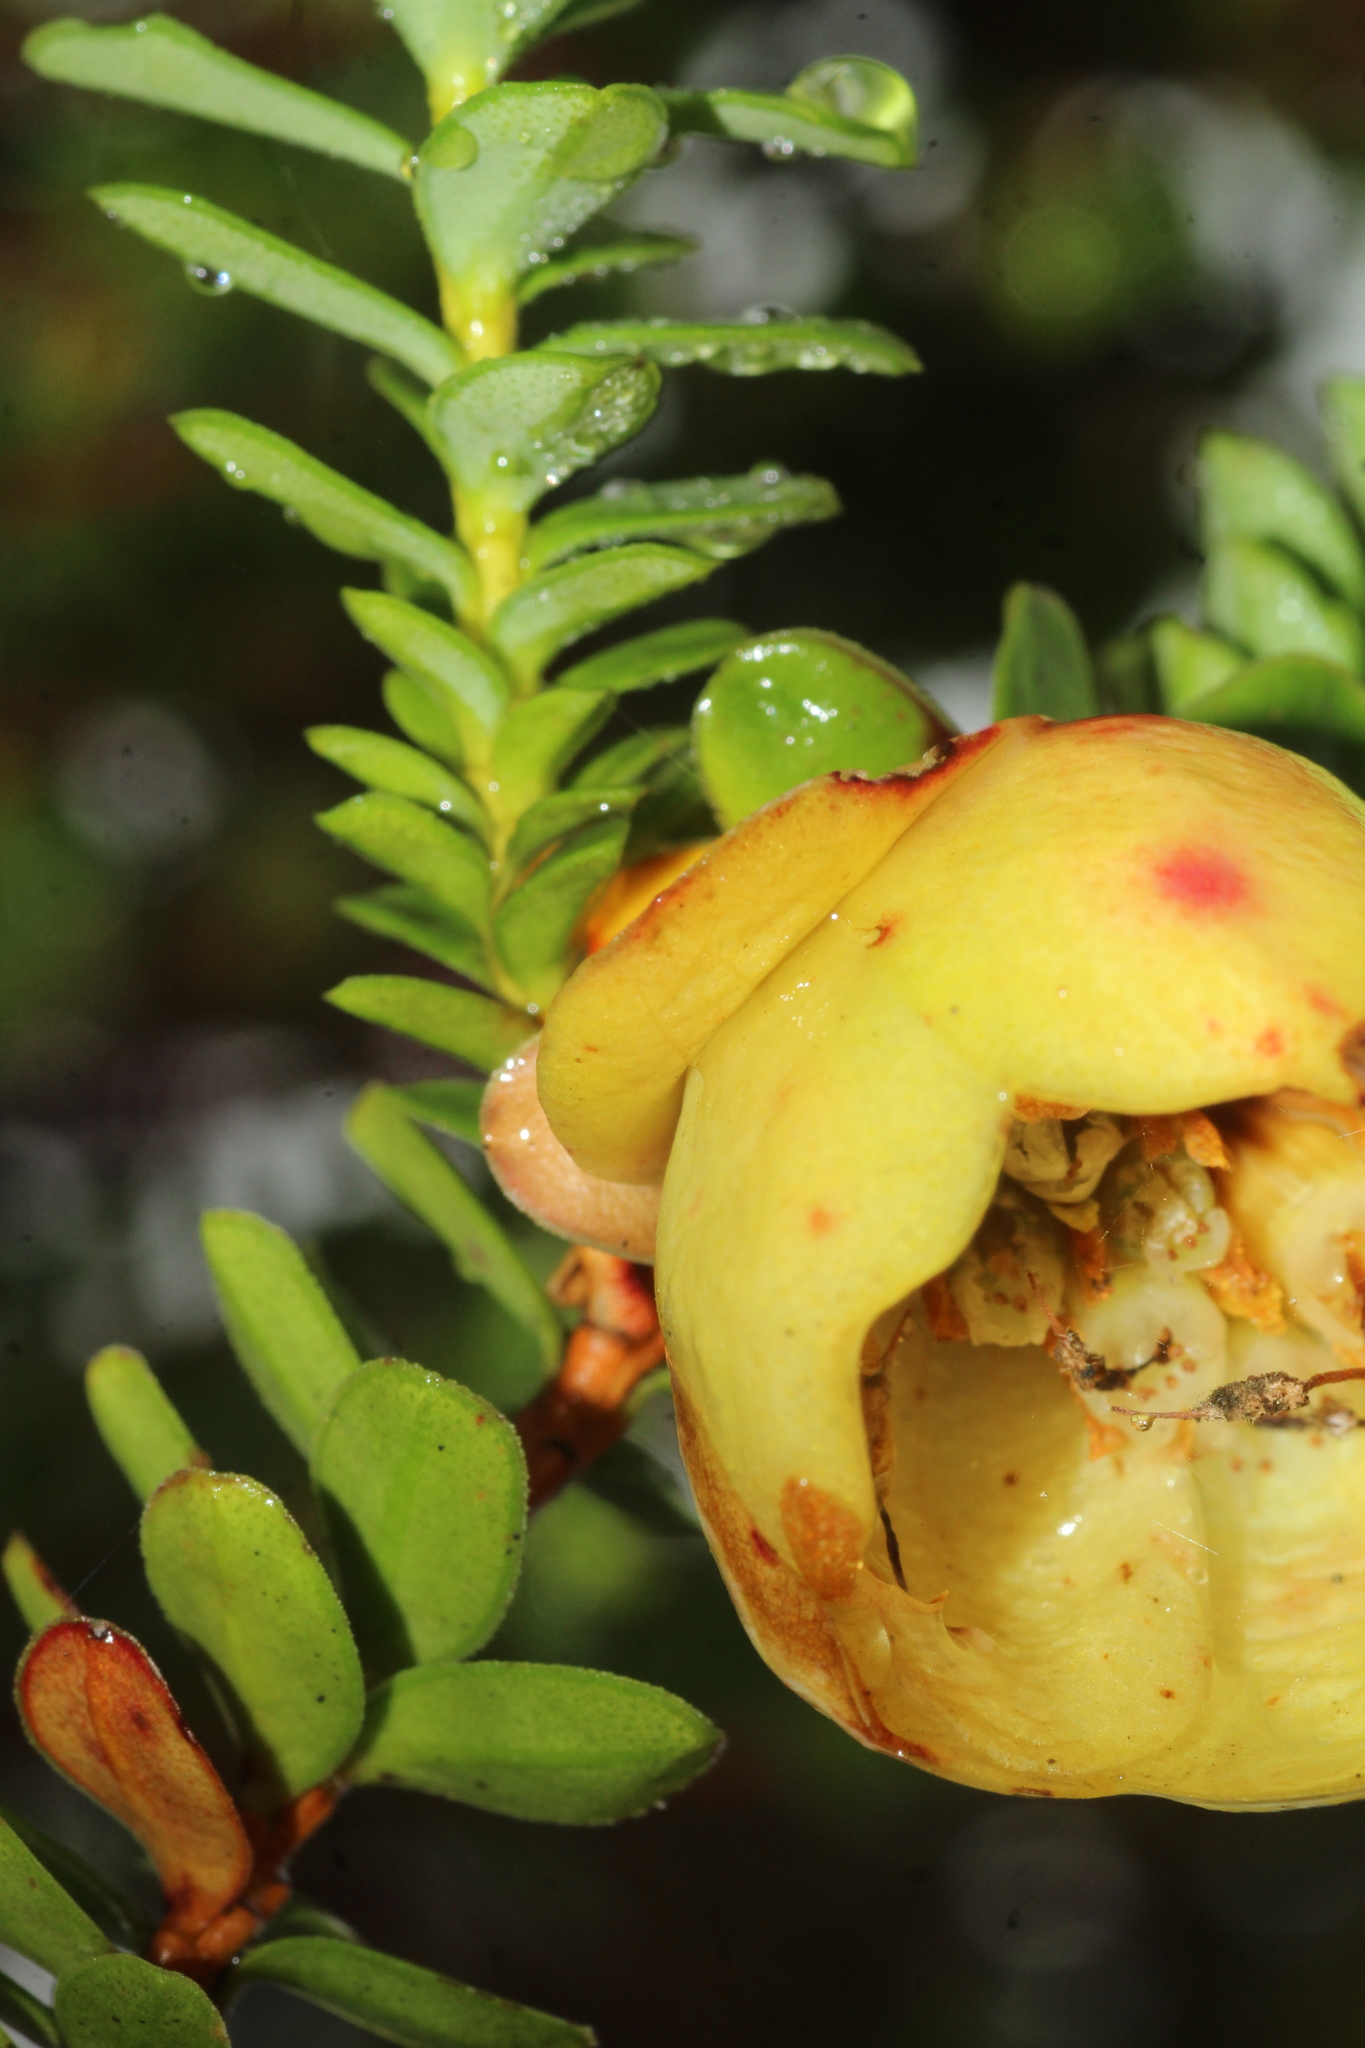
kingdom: Plantae
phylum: Tracheophyta
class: Magnoliopsida
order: Myrtales
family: Myrtaceae
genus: Darwinia
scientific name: Darwinia collina
